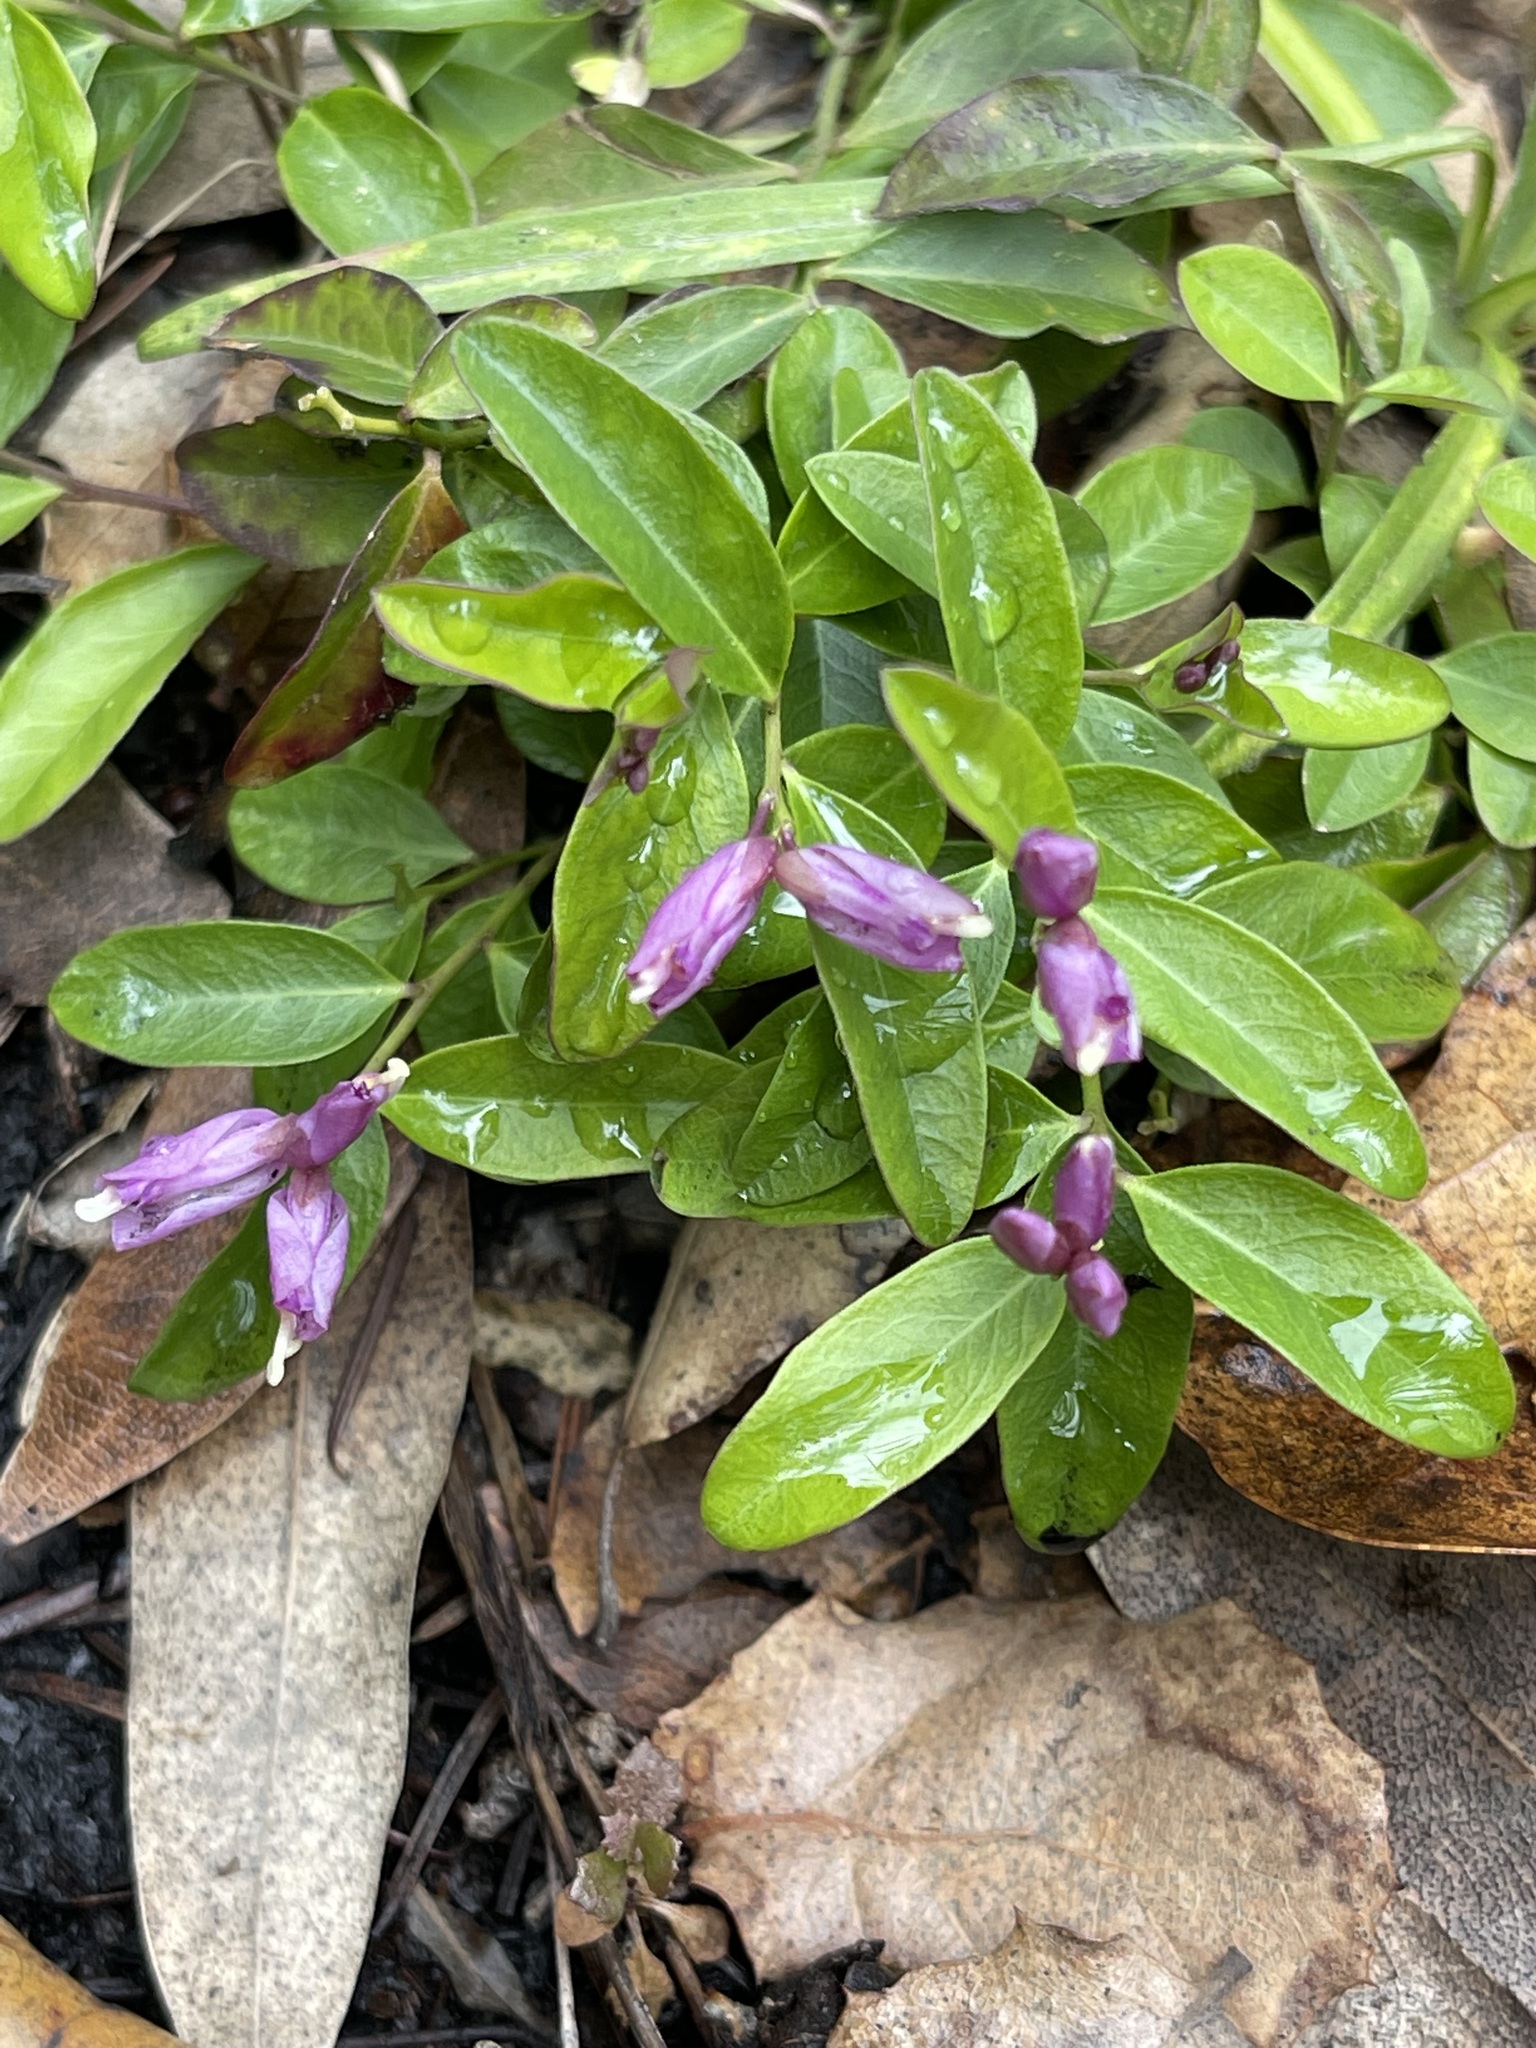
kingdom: Plantae
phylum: Tracheophyta
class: Magnoliopsida
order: Fabales
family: Polygalaceae
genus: Rhinotropis
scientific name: Rhinotropis californica
